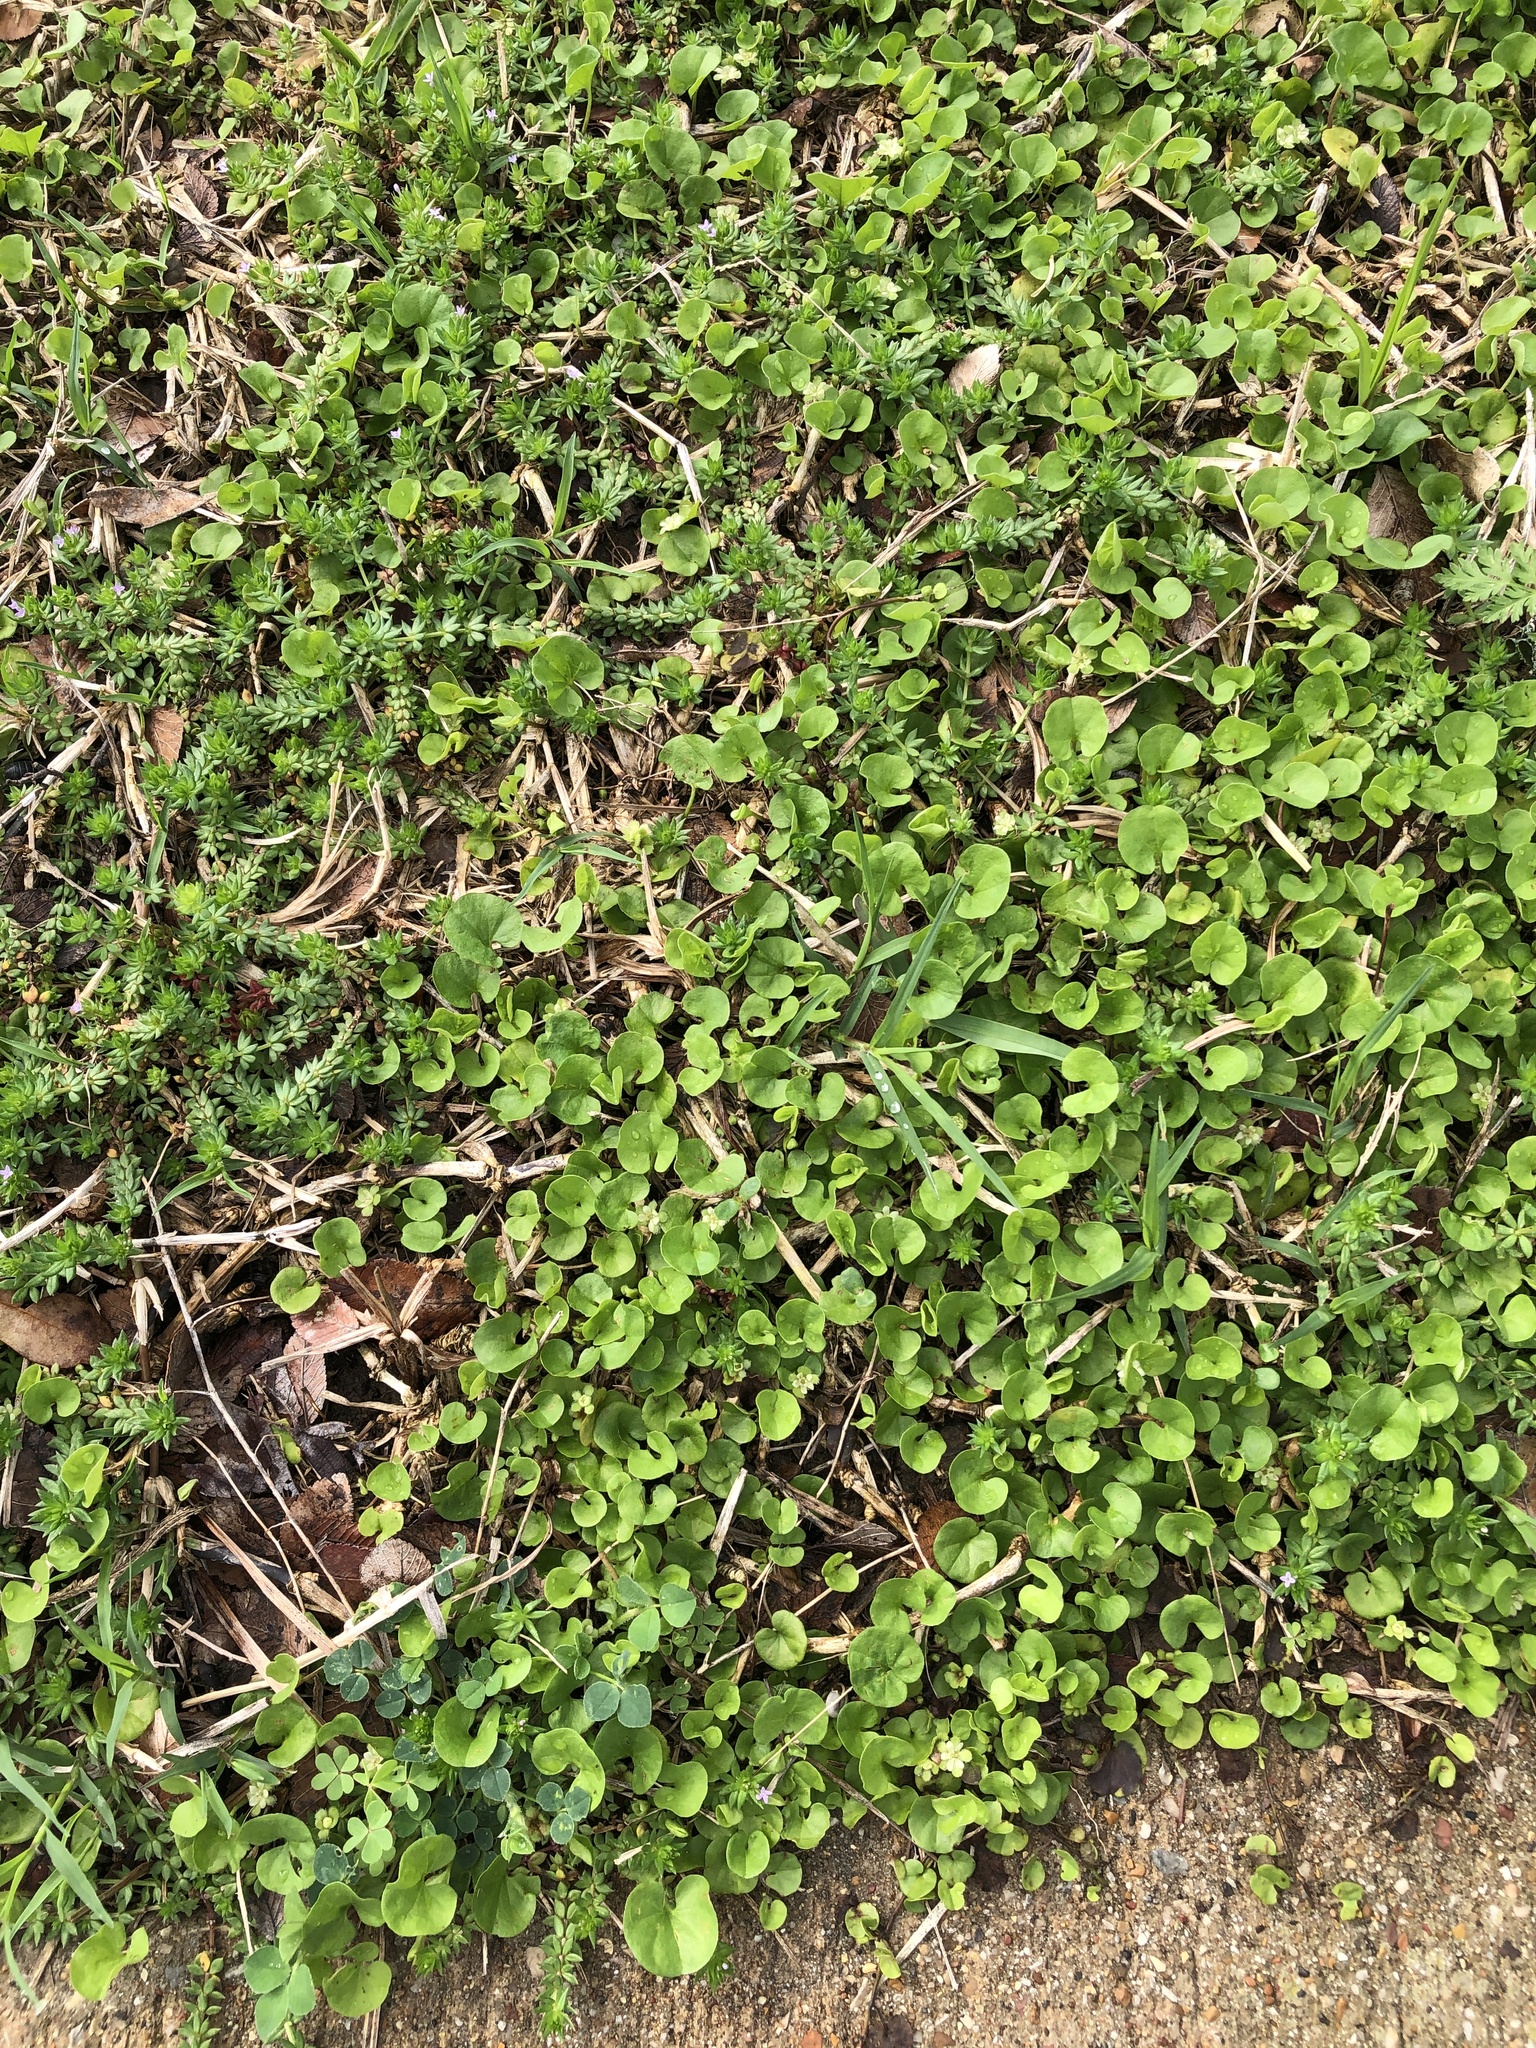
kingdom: Plantae
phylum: Tracheophyta
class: Magnoliopsida
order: Solanales
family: Convolvulaceae
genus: Dichondra
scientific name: Dichondra carolinensis
